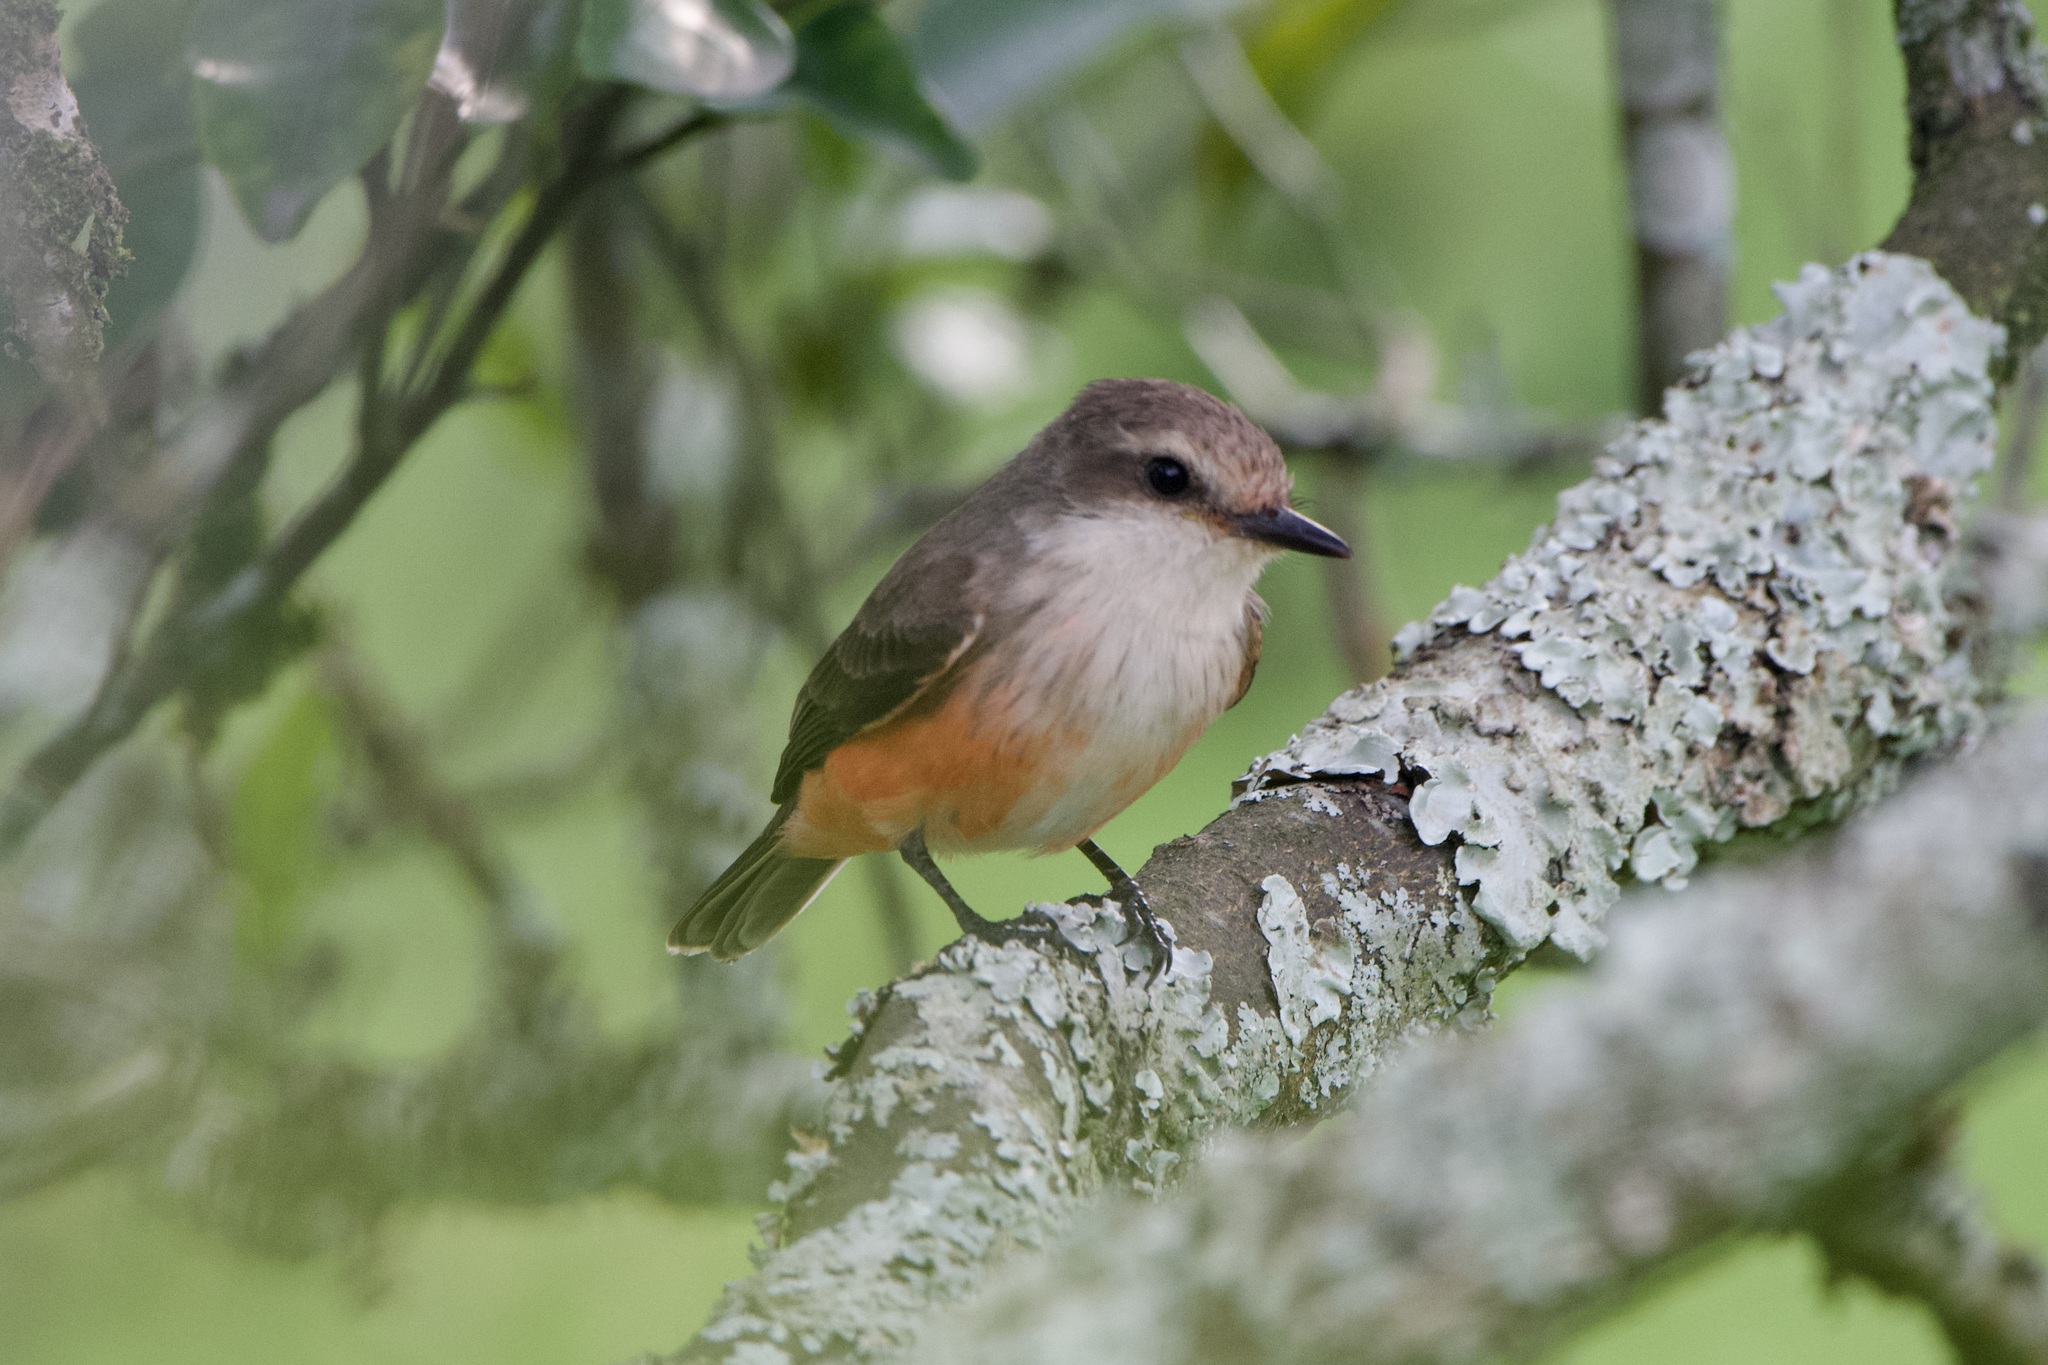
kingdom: Animalia
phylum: Chordata
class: Aves
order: Passeriformes
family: Tyrannidae
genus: Pyrocephalus
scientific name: Pyrocephalus rubinus
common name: Vermilion flycatcher
